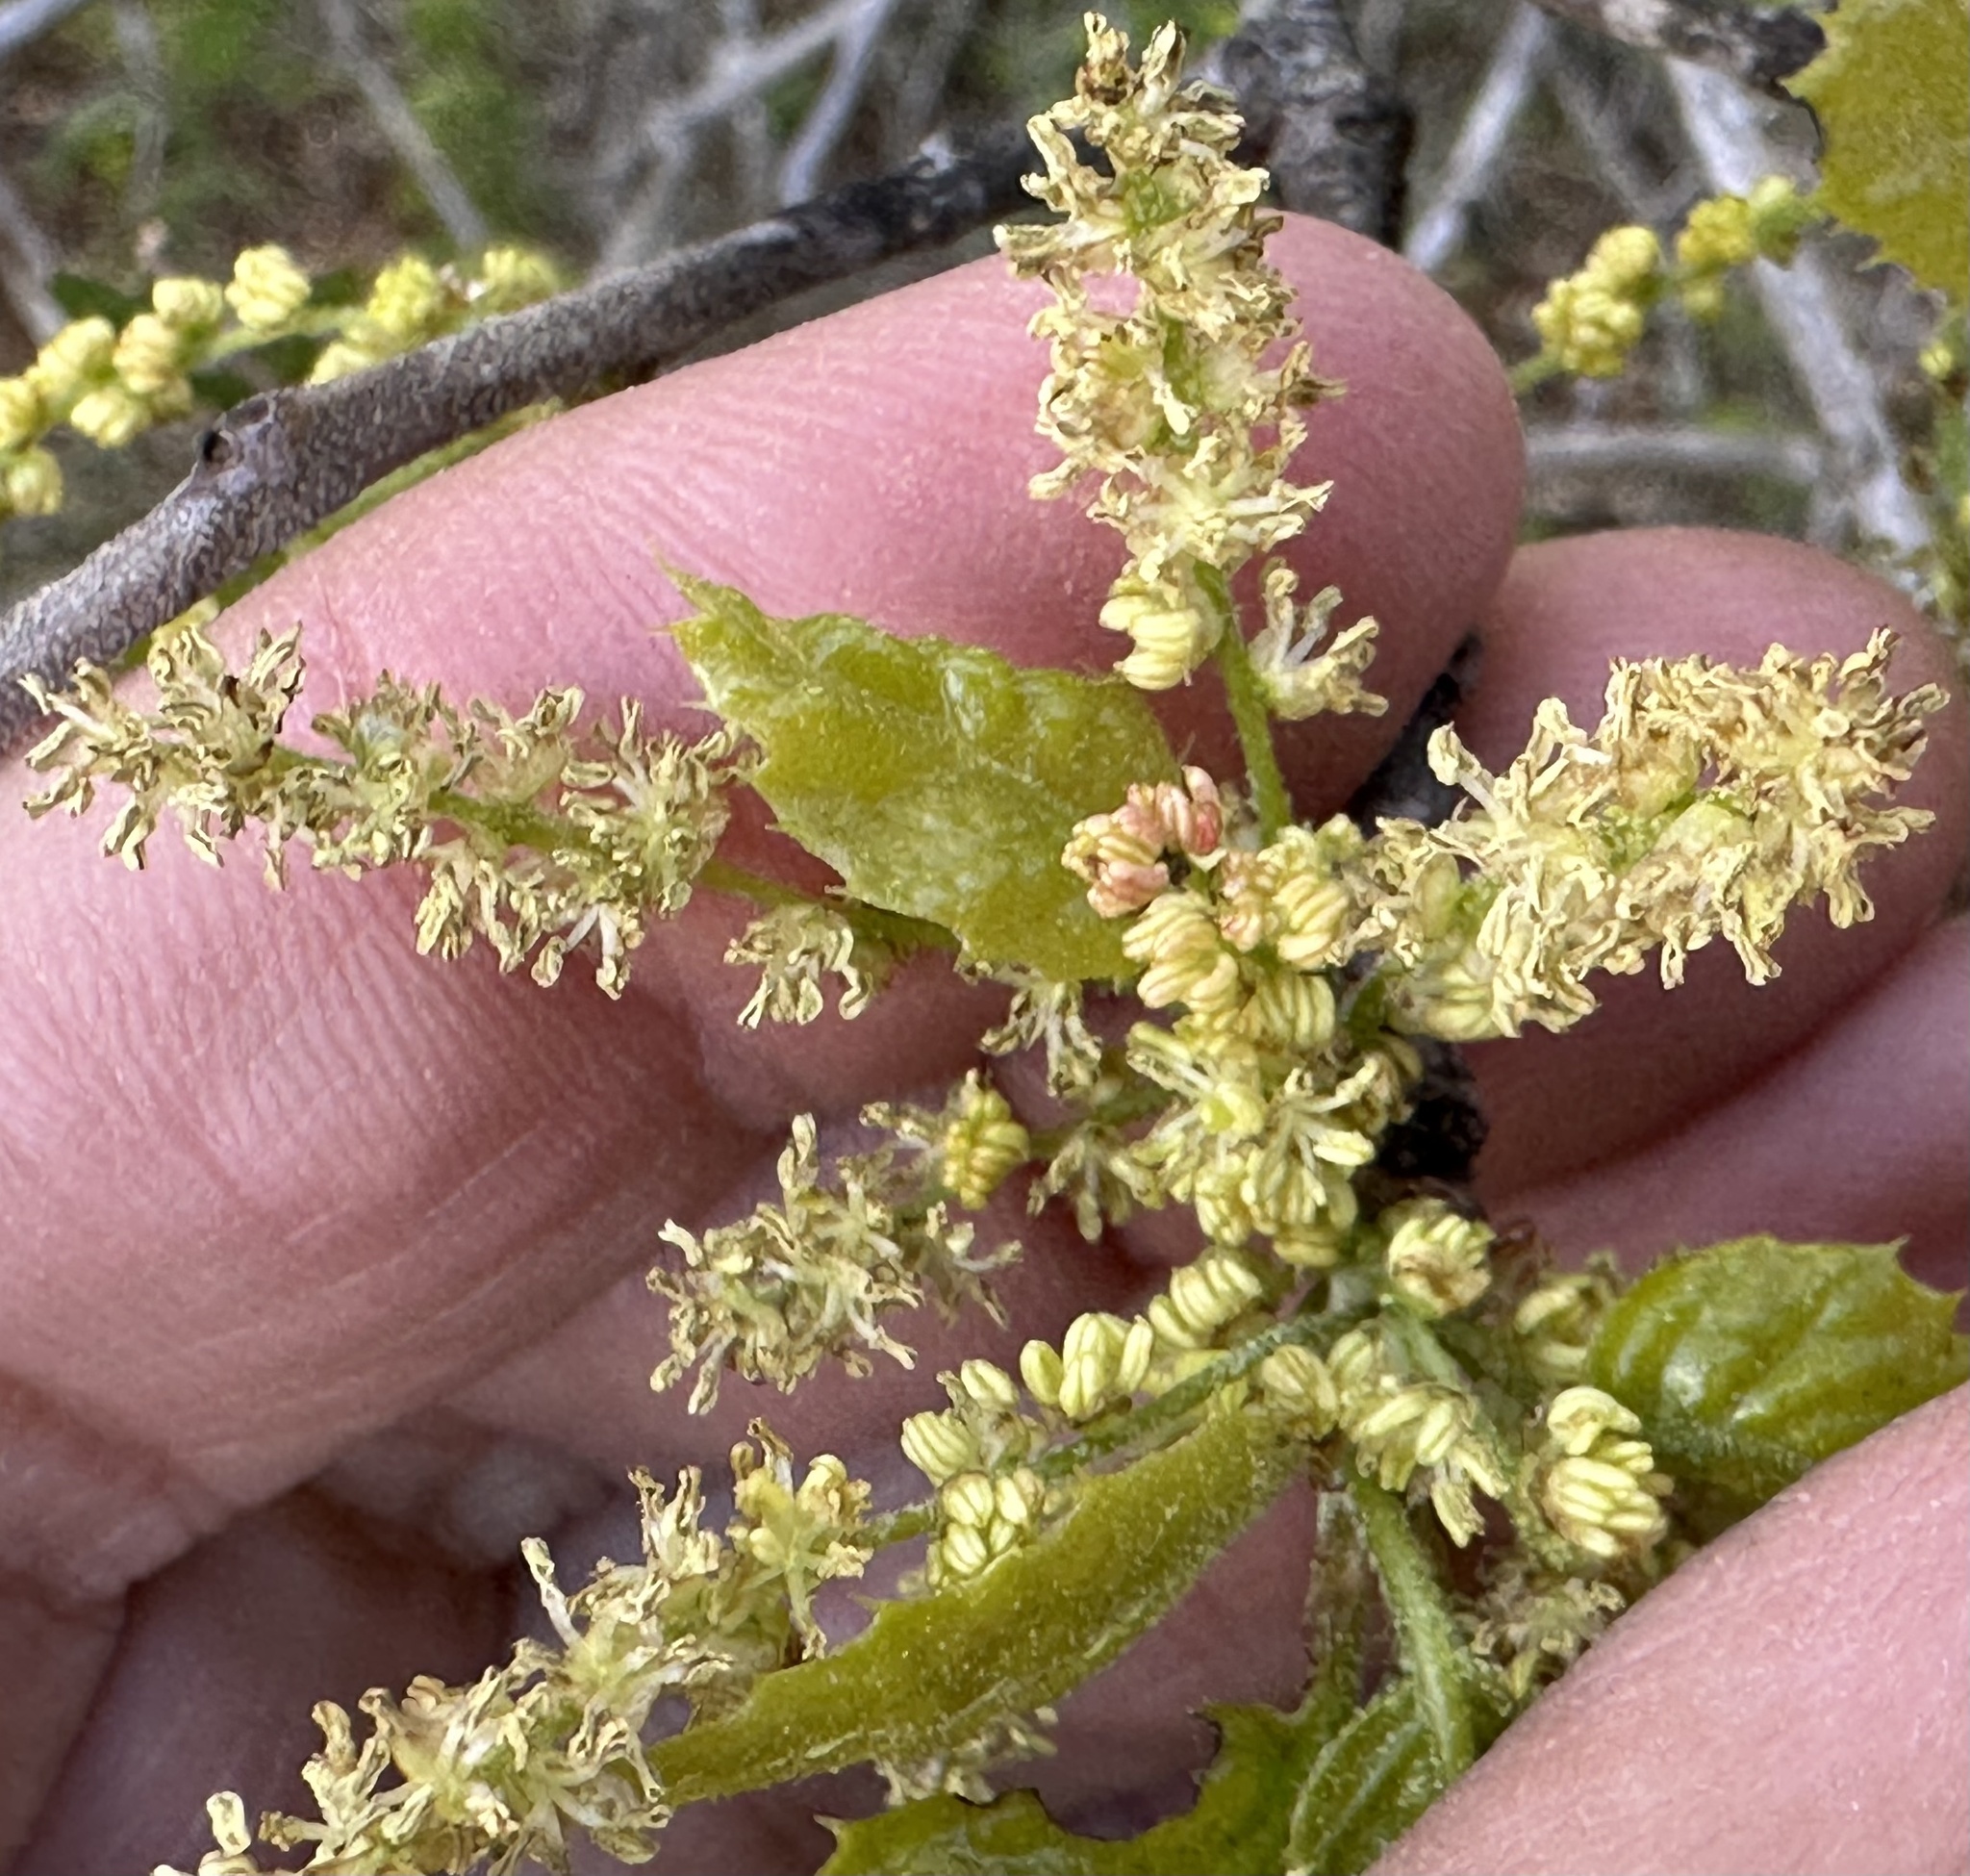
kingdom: Plantae
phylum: Tracheophyta
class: Magnoliopsida
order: Fagales
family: Fagaceae
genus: Quercus
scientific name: Quercus agrifolia
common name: California live oak
